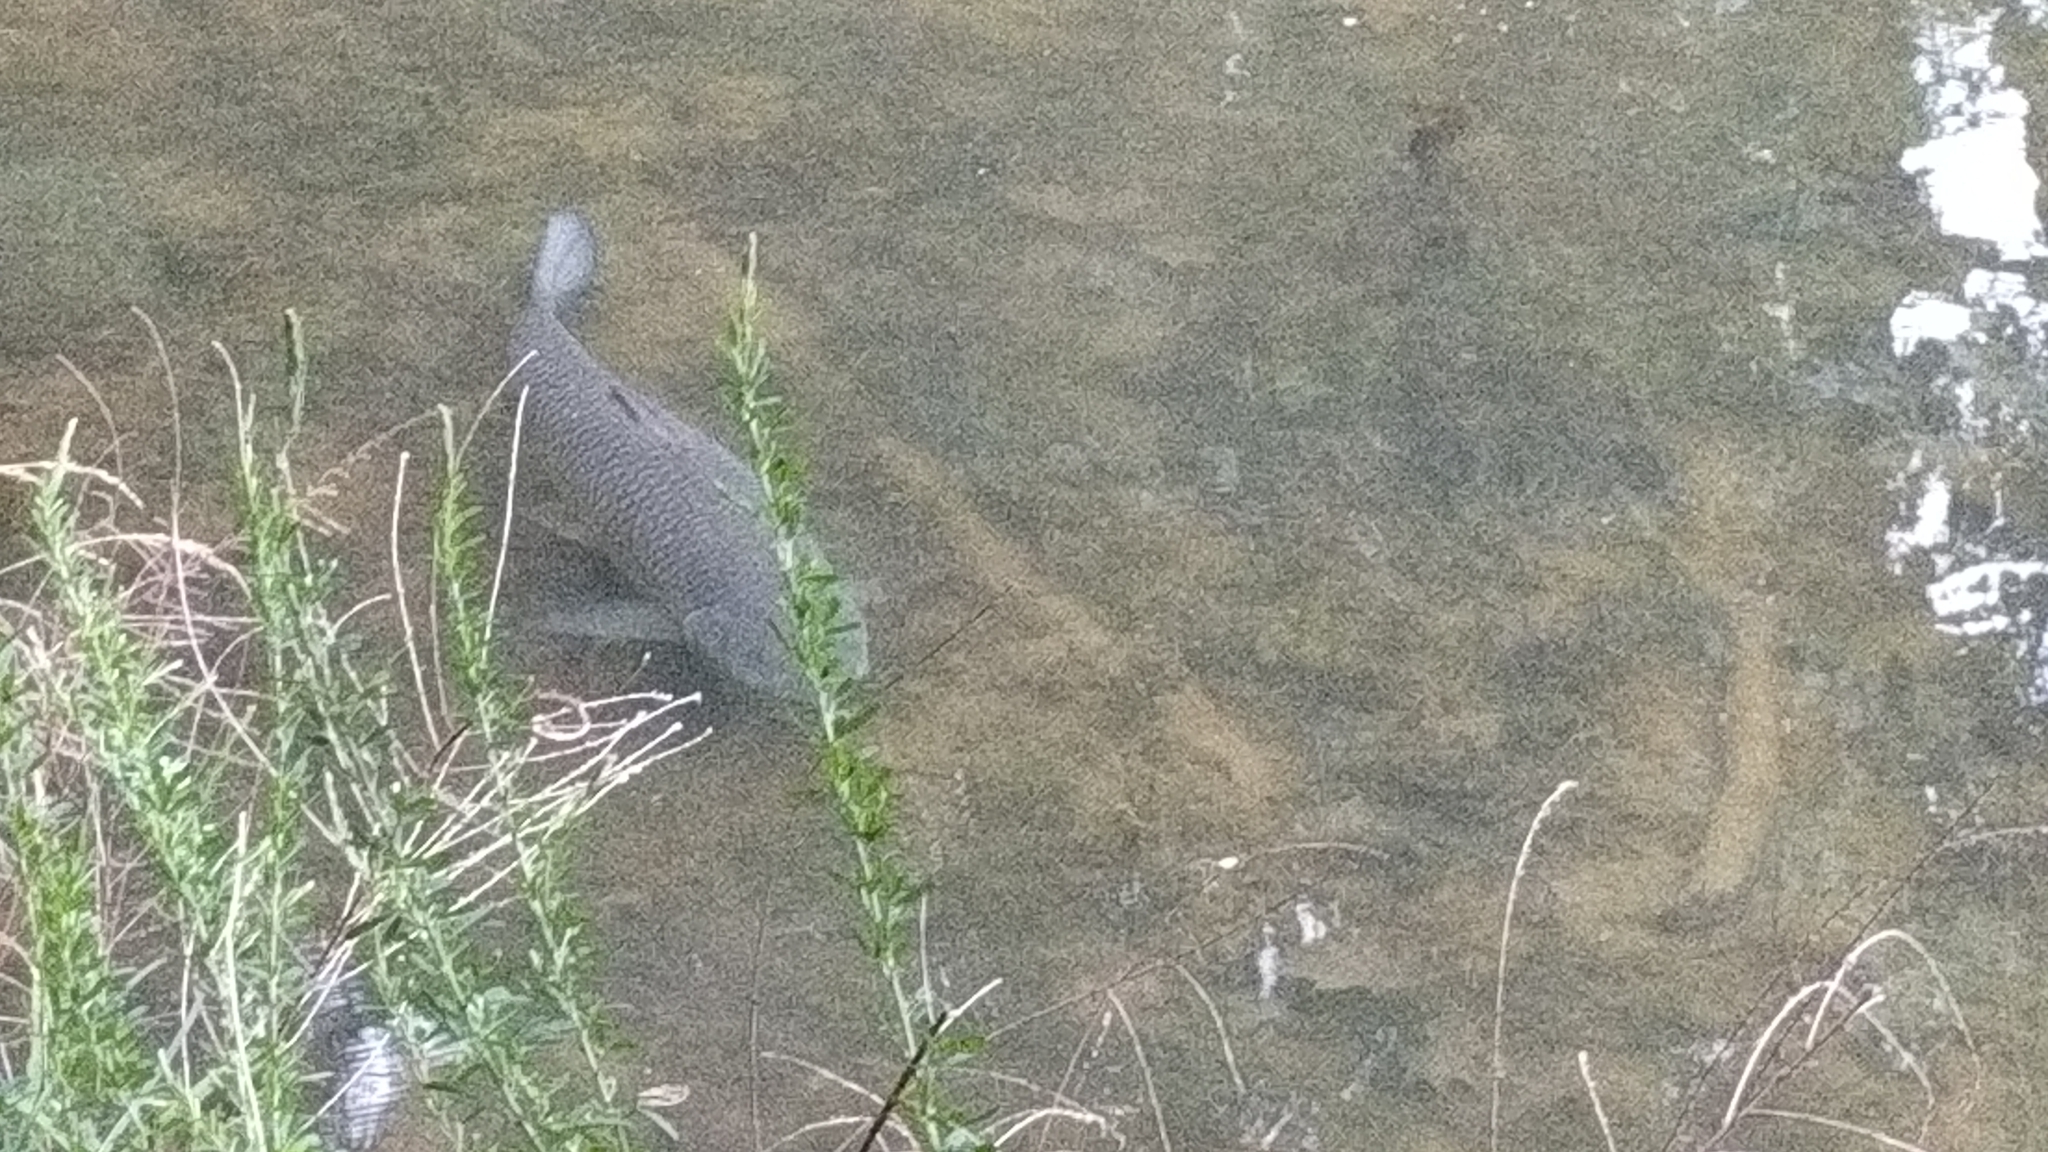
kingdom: Animalia
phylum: Chordata
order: Cypriniformes
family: Cyprinidae
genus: Ctenopharyngodon
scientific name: Ctenopharyngodon idella
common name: Grass carp
